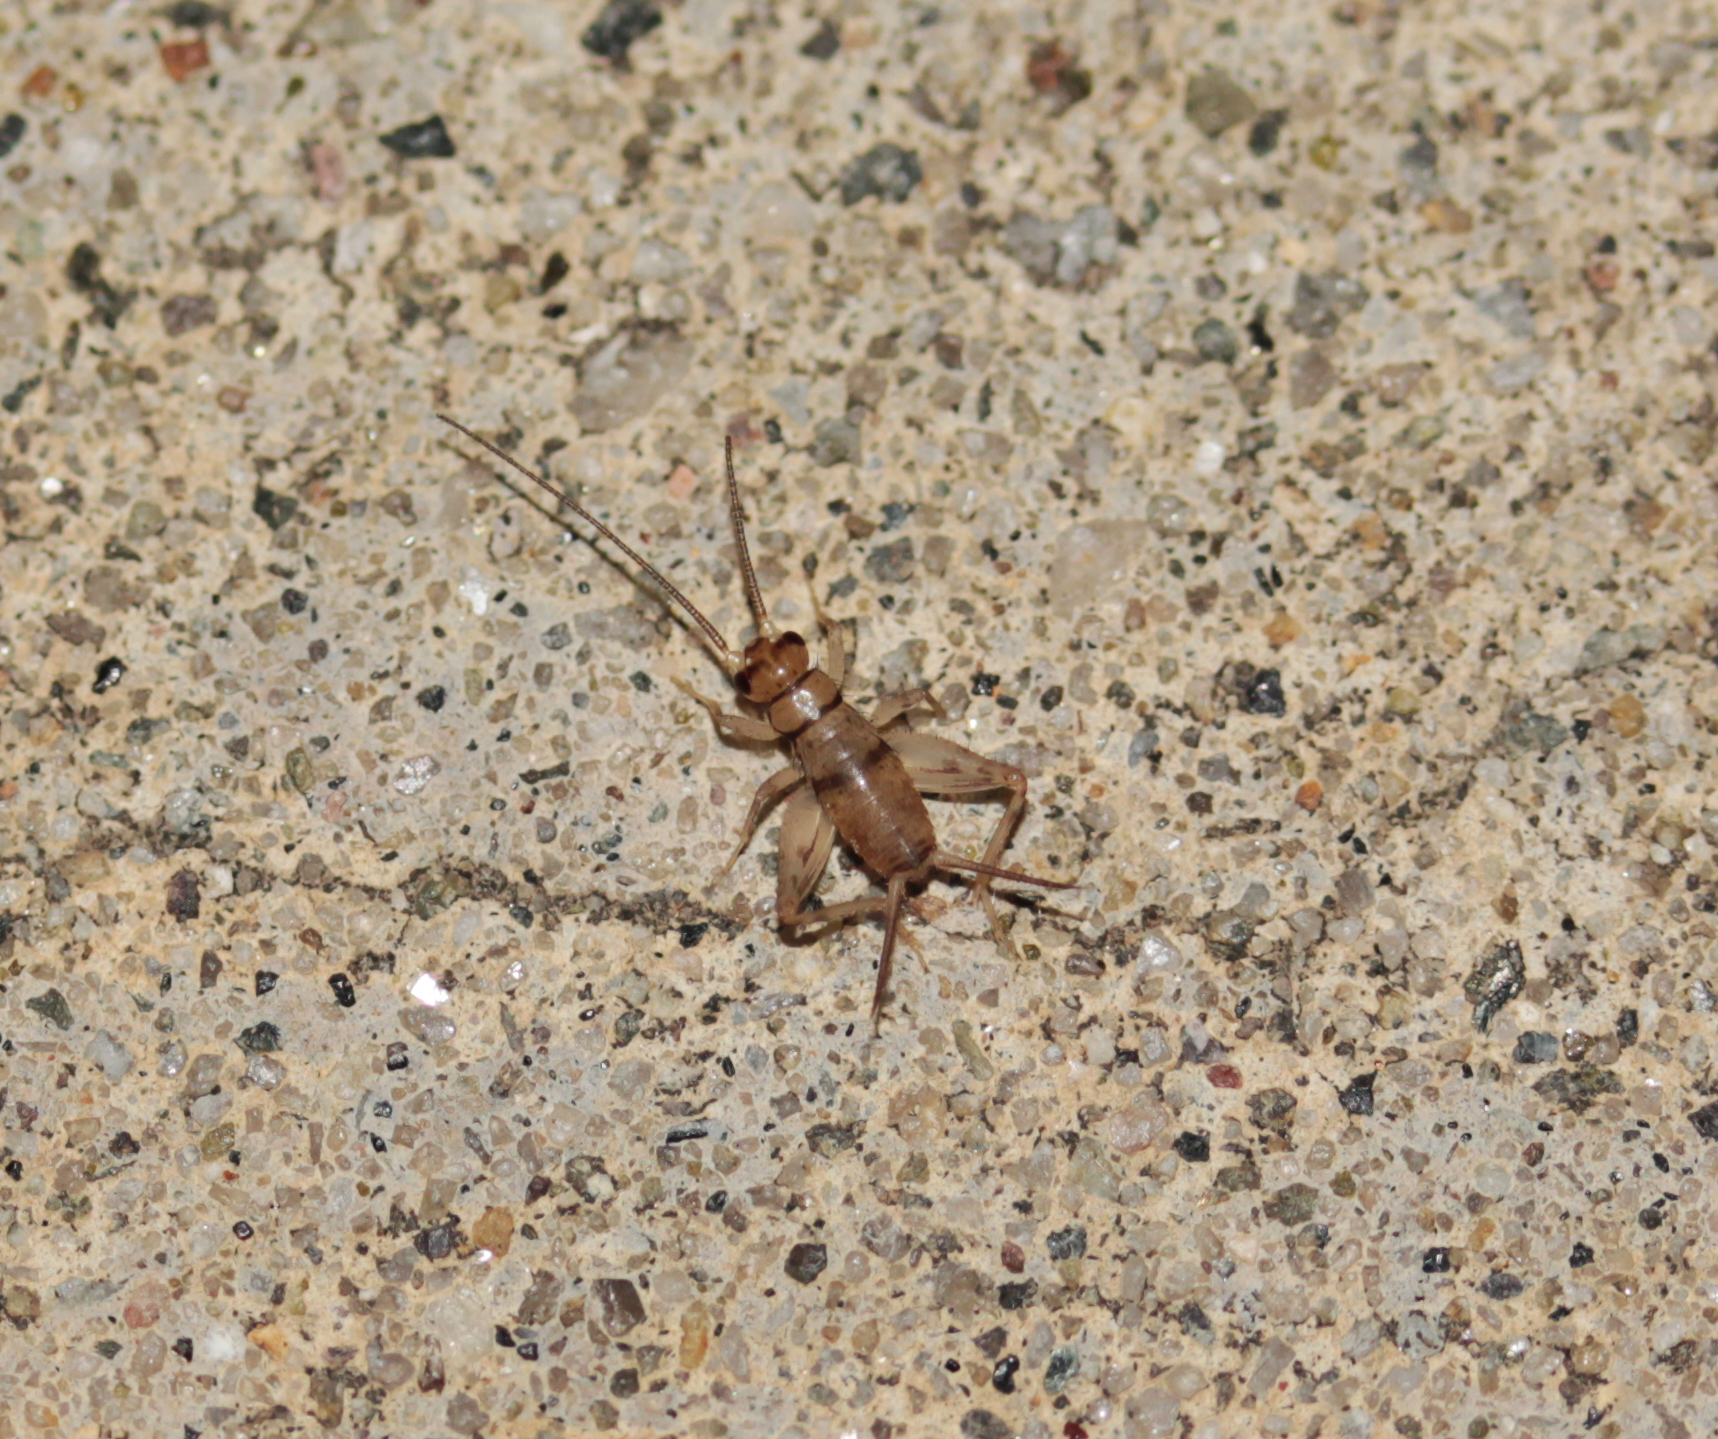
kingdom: Animalia
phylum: Arthropoda
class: Insecta
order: Orthoptera
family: Gryllidae
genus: Gryllodes
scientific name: Gryllodes sigillatus
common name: Tropical house cricket
